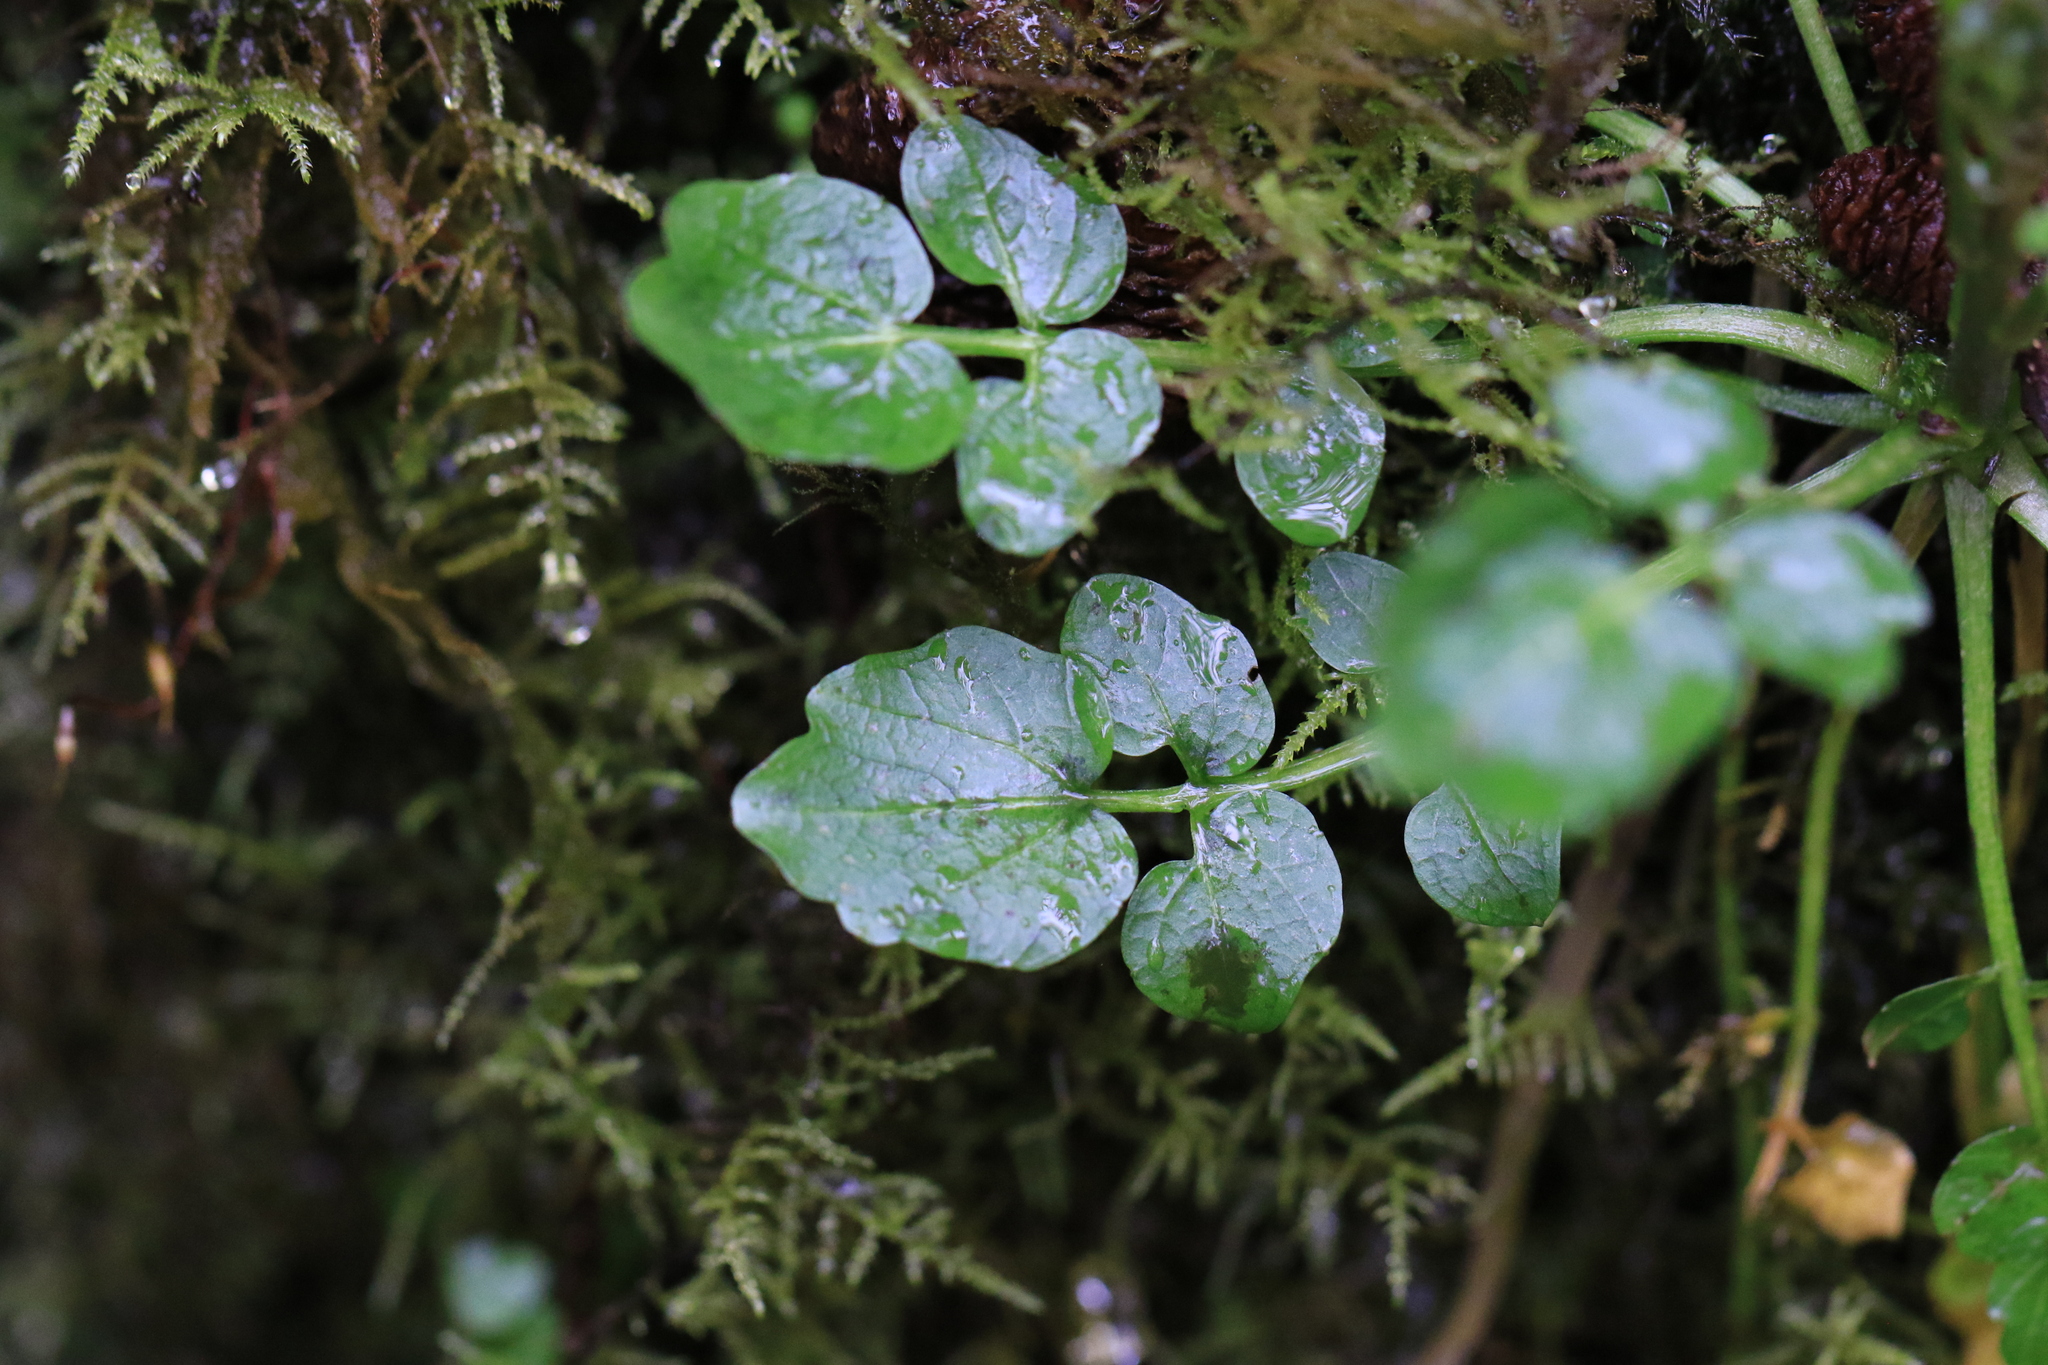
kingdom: Plantae
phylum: Tracheophyta
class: Magnoliopsida
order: Brassicales
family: Brassicaceae
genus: Cardamine
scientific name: Cardamine breweri
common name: Brewer's bittercress
